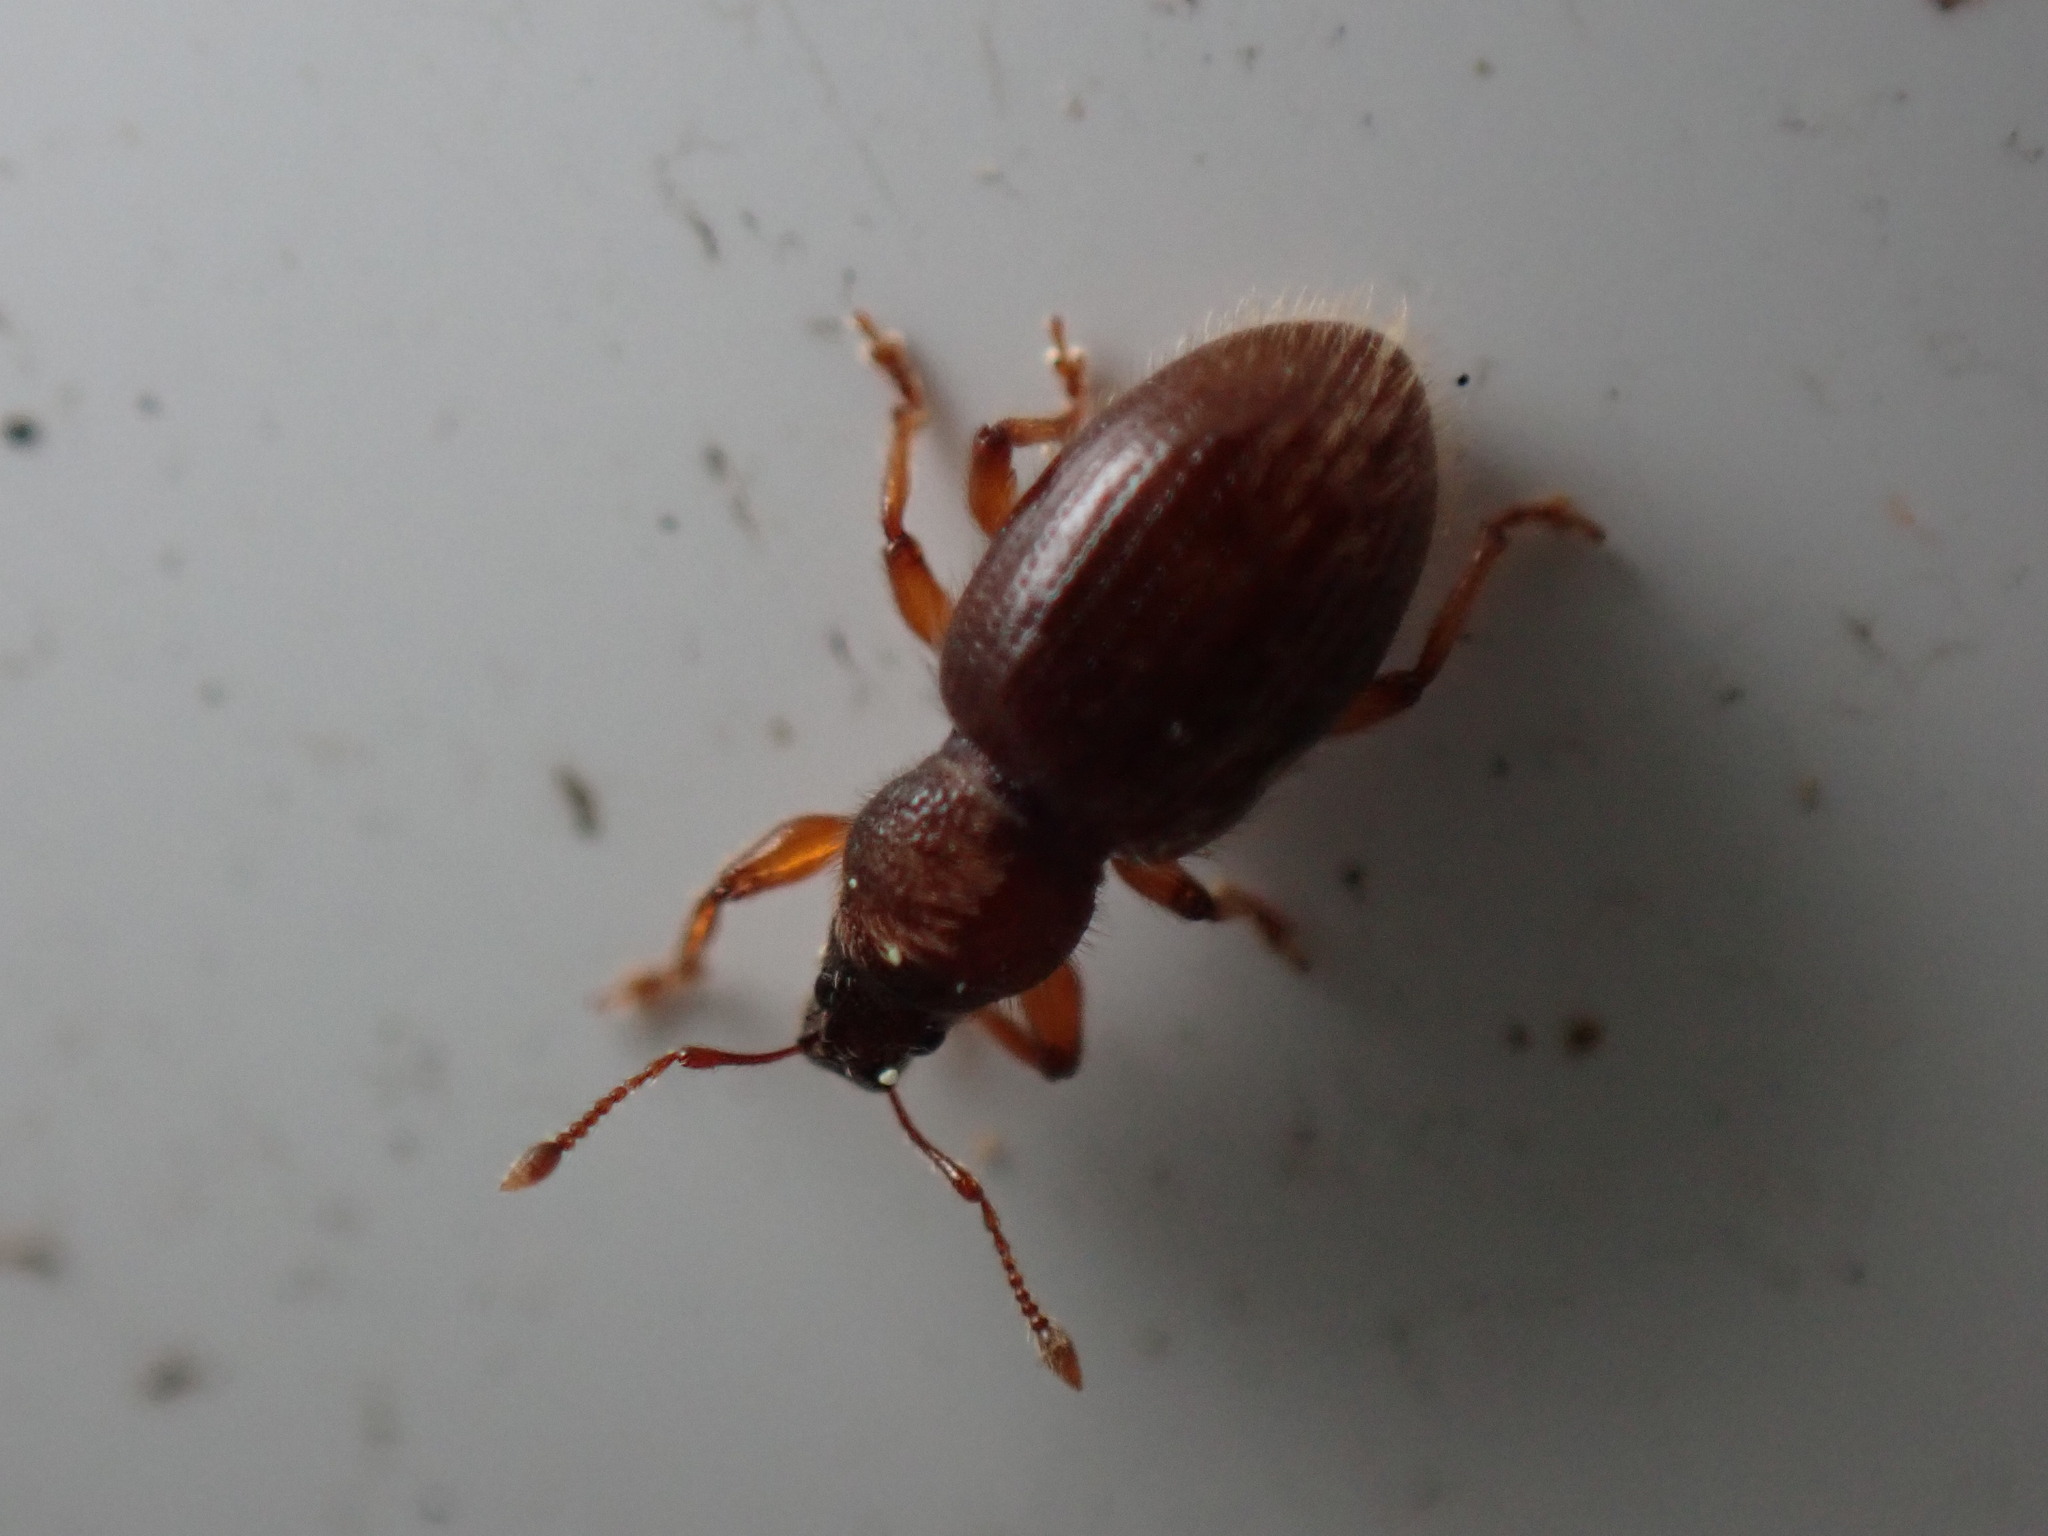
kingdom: Animalia
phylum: Arthropoda
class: Insecta
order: Coleoptera
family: Curculionidae
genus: Exomias
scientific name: Exomias pellucidus
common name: Hairy spider weevil
